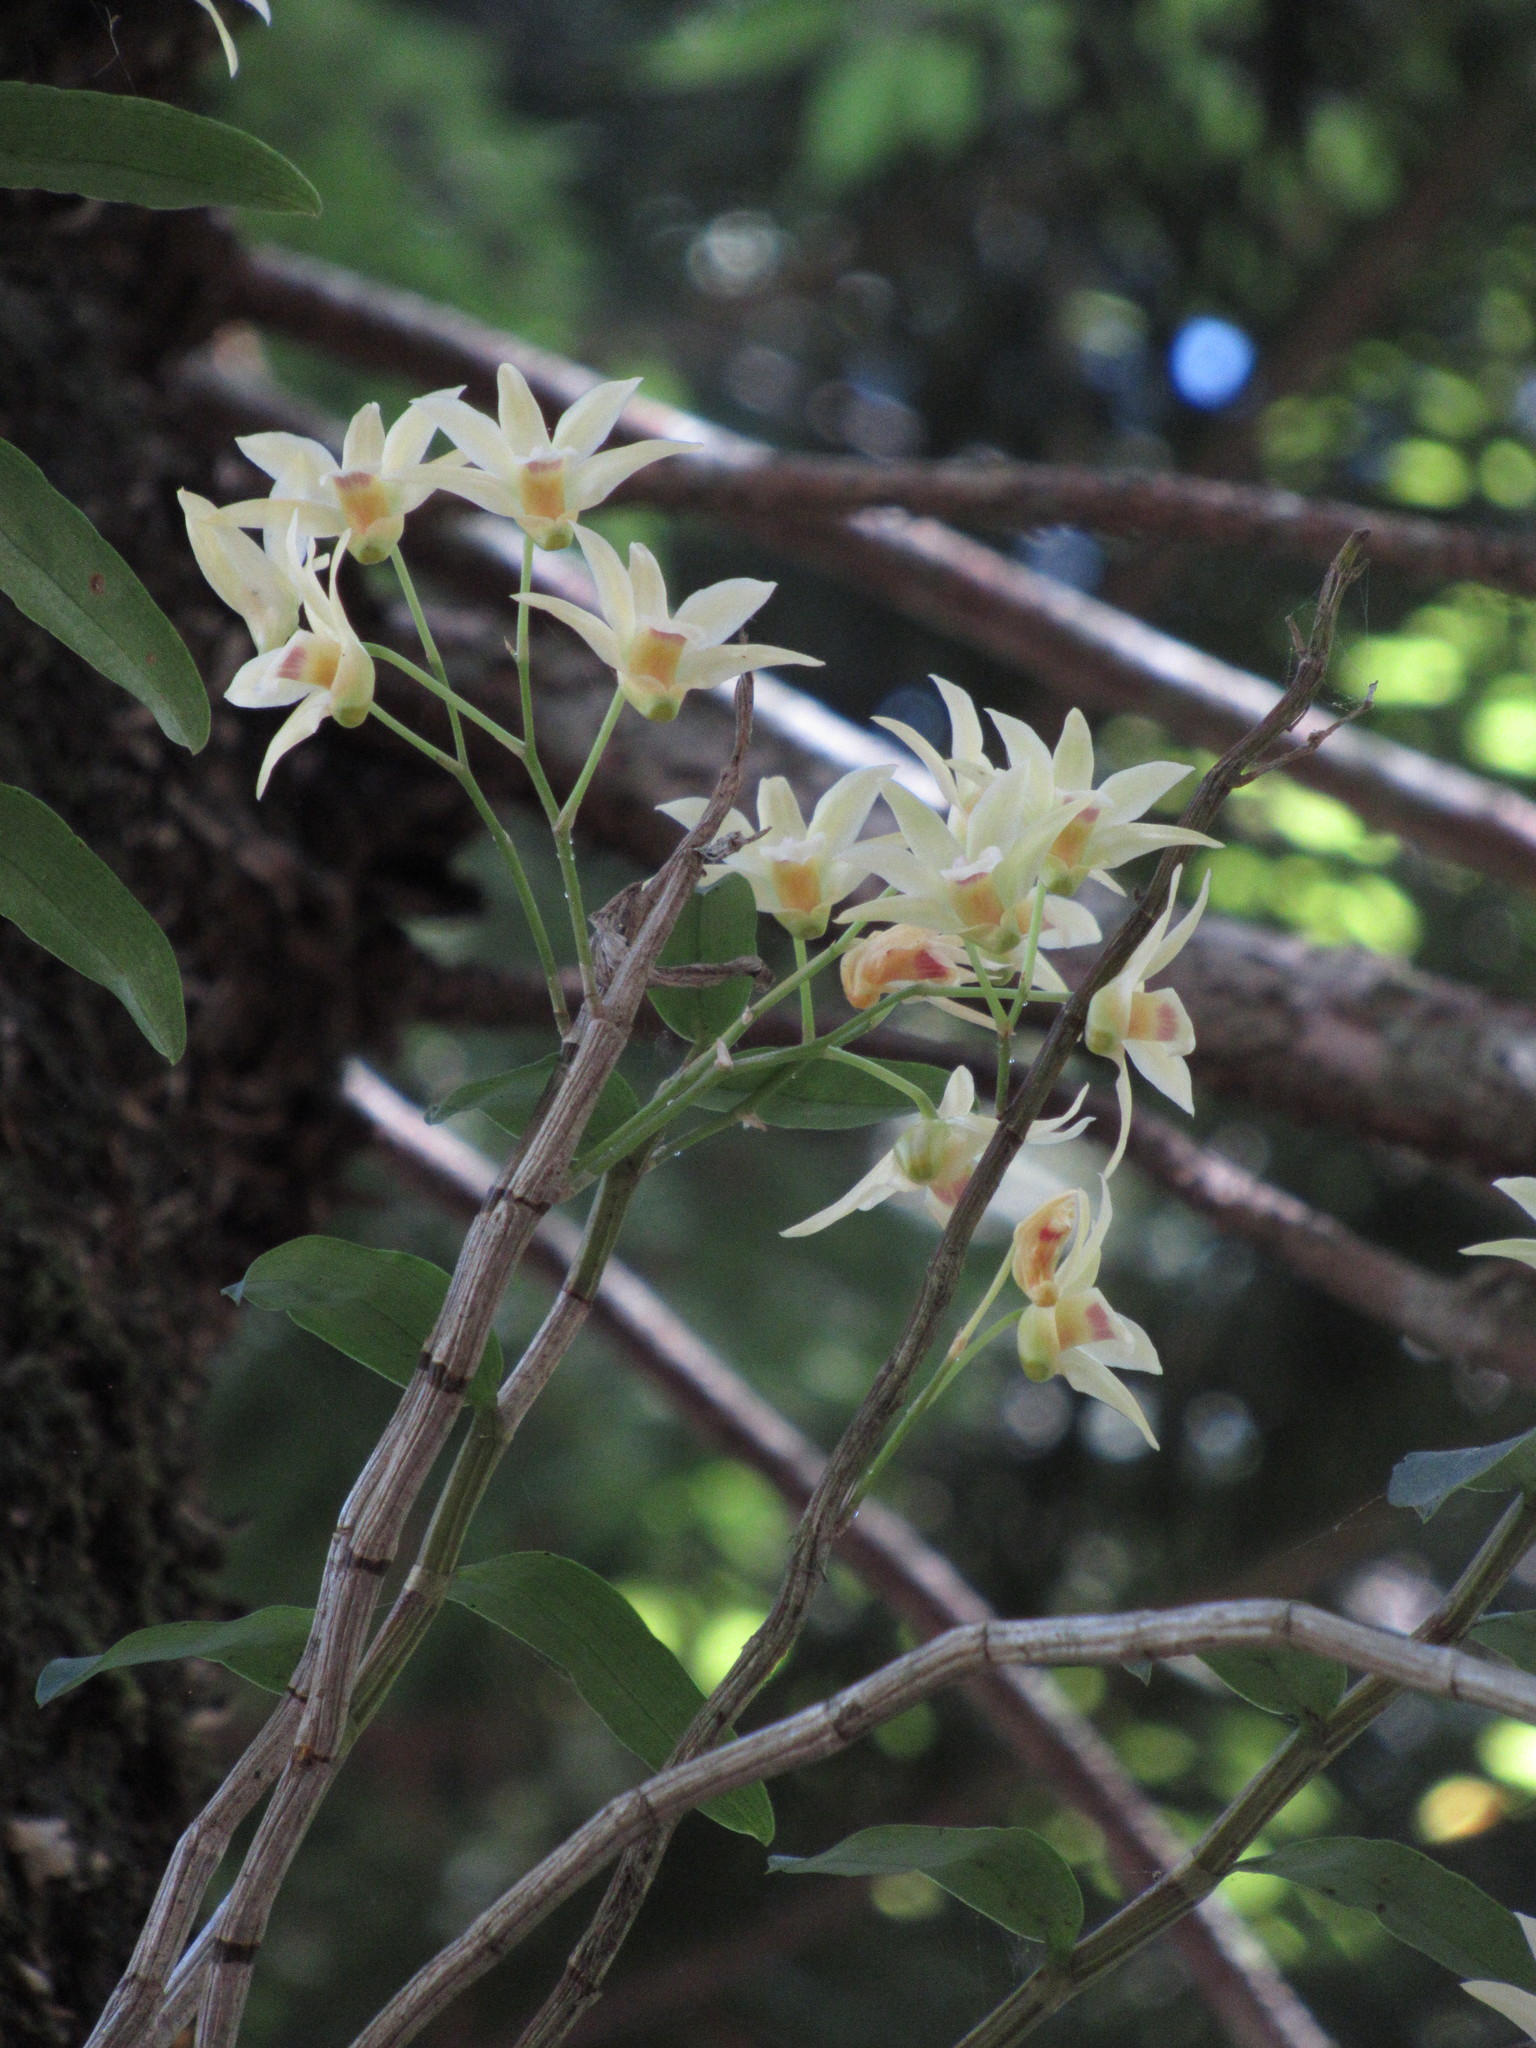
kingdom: Plantae
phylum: Tracheophyta
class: Liliopsida
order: Asparagales
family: Orchidaceae
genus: Dendrobium
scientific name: Dendrobium officinale
